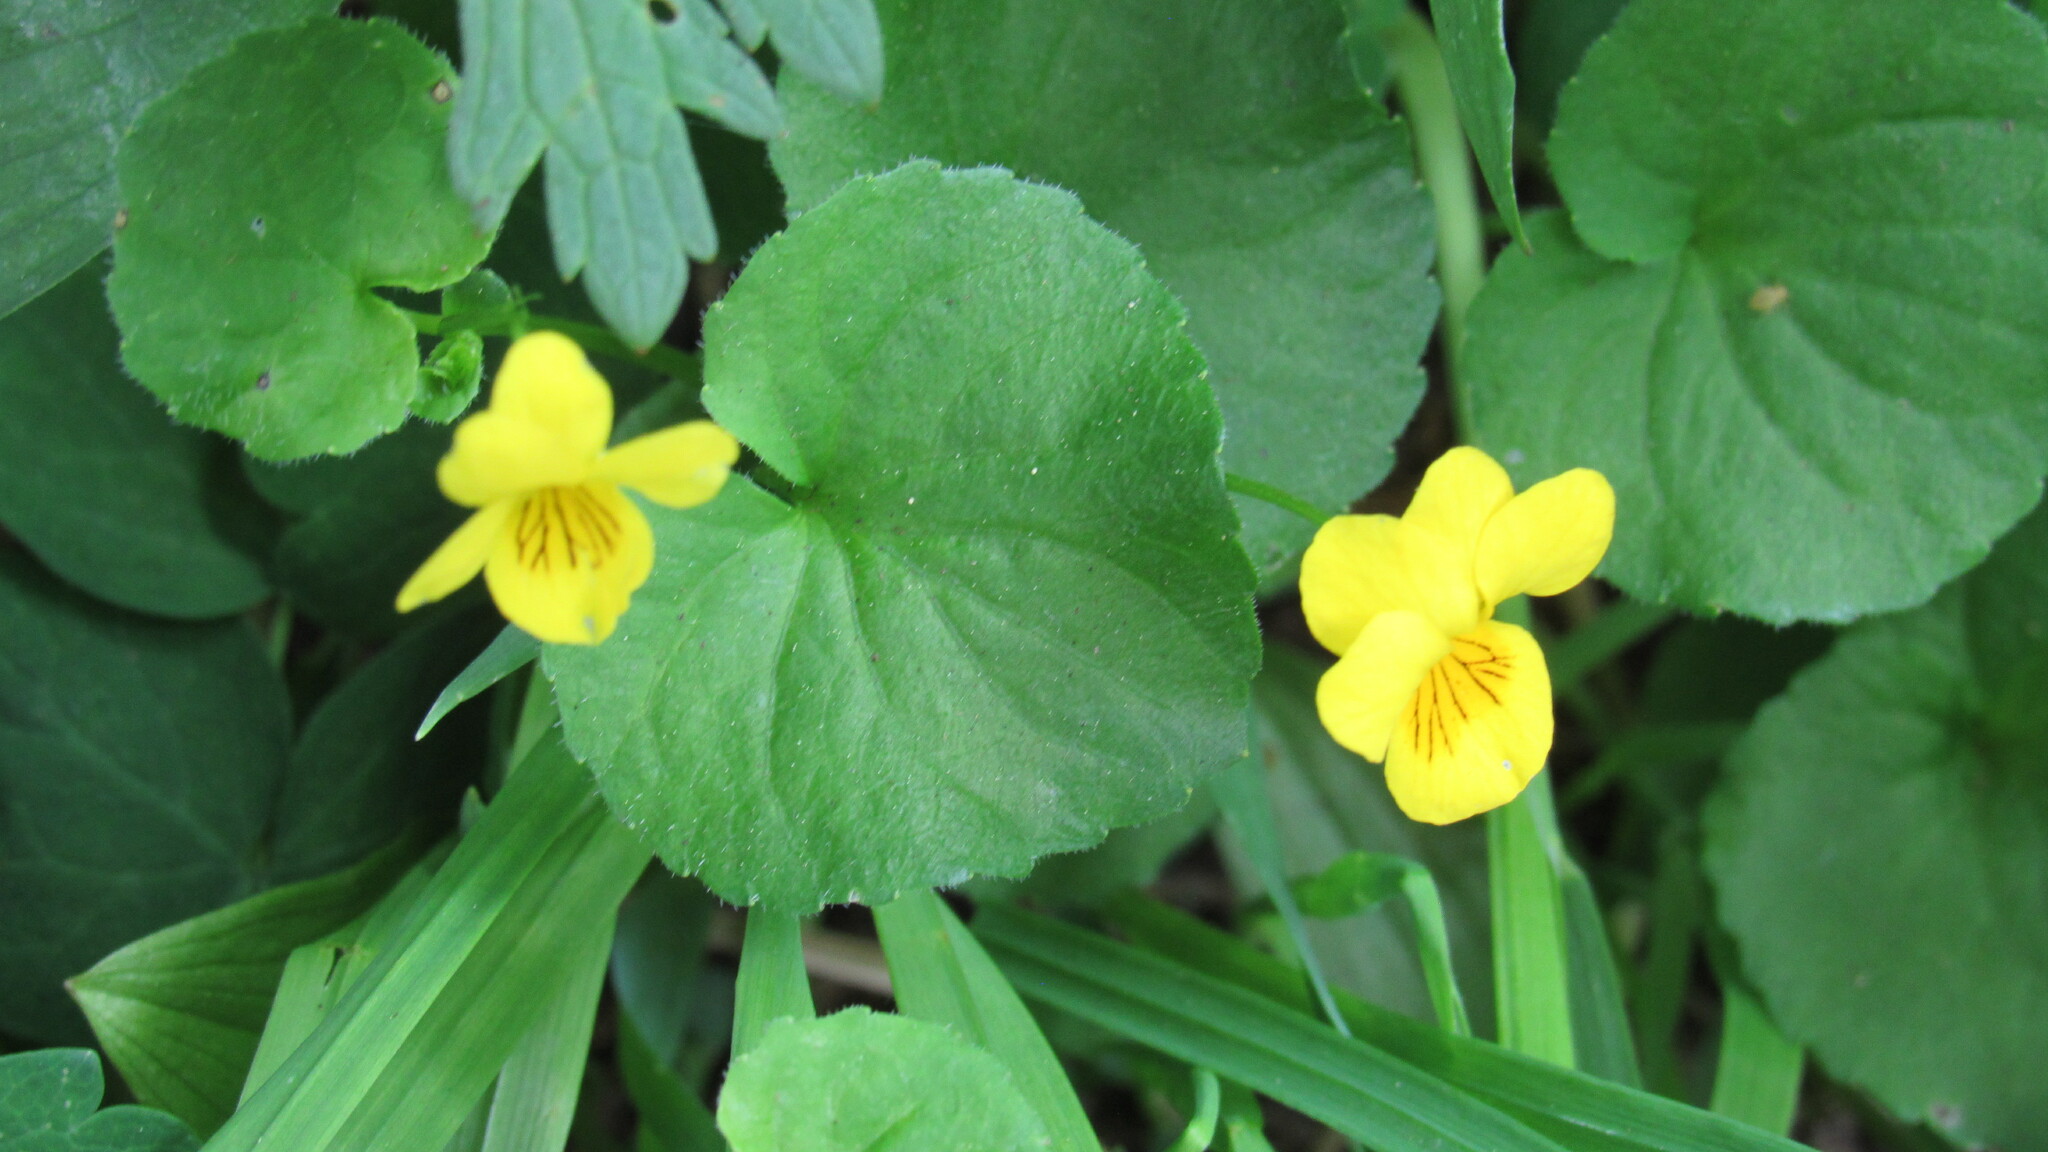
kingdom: Plantae
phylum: Tracheophyta
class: Magnoliopsida
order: Malpighiales
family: Violaceae
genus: Viola
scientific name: Viola biflora
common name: Alpine yellow violet
